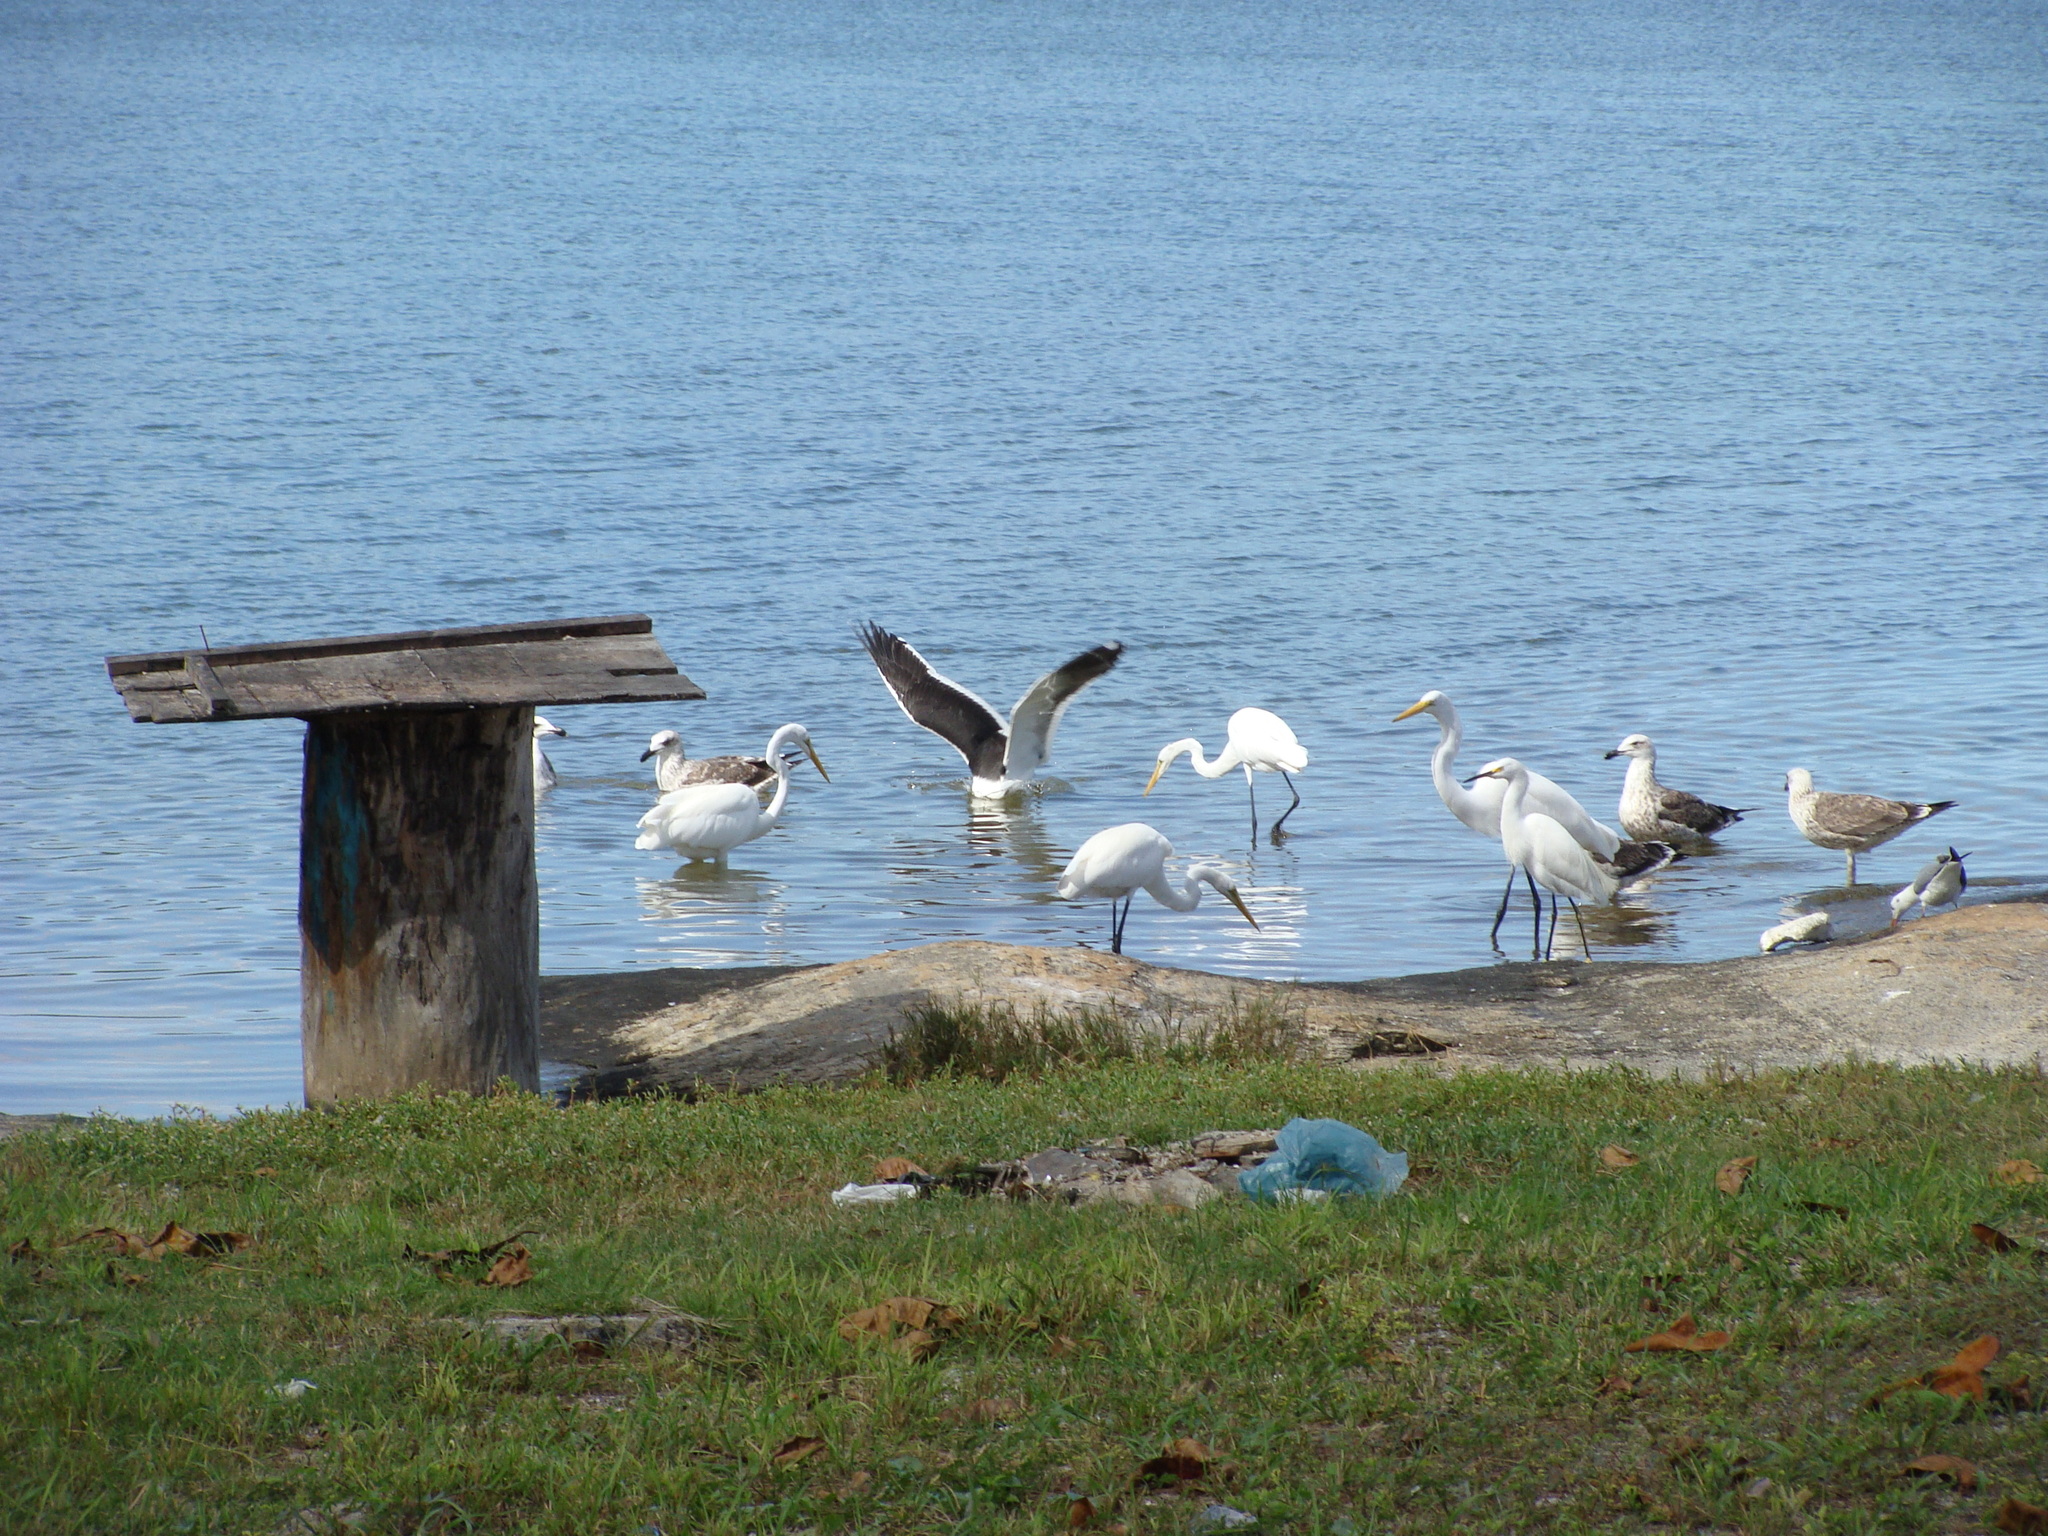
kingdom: Animalia
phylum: Chordata
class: Aves
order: Pelecaniformes
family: Ardeidae
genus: Egretta
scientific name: Egretta thula
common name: Snowy egret
